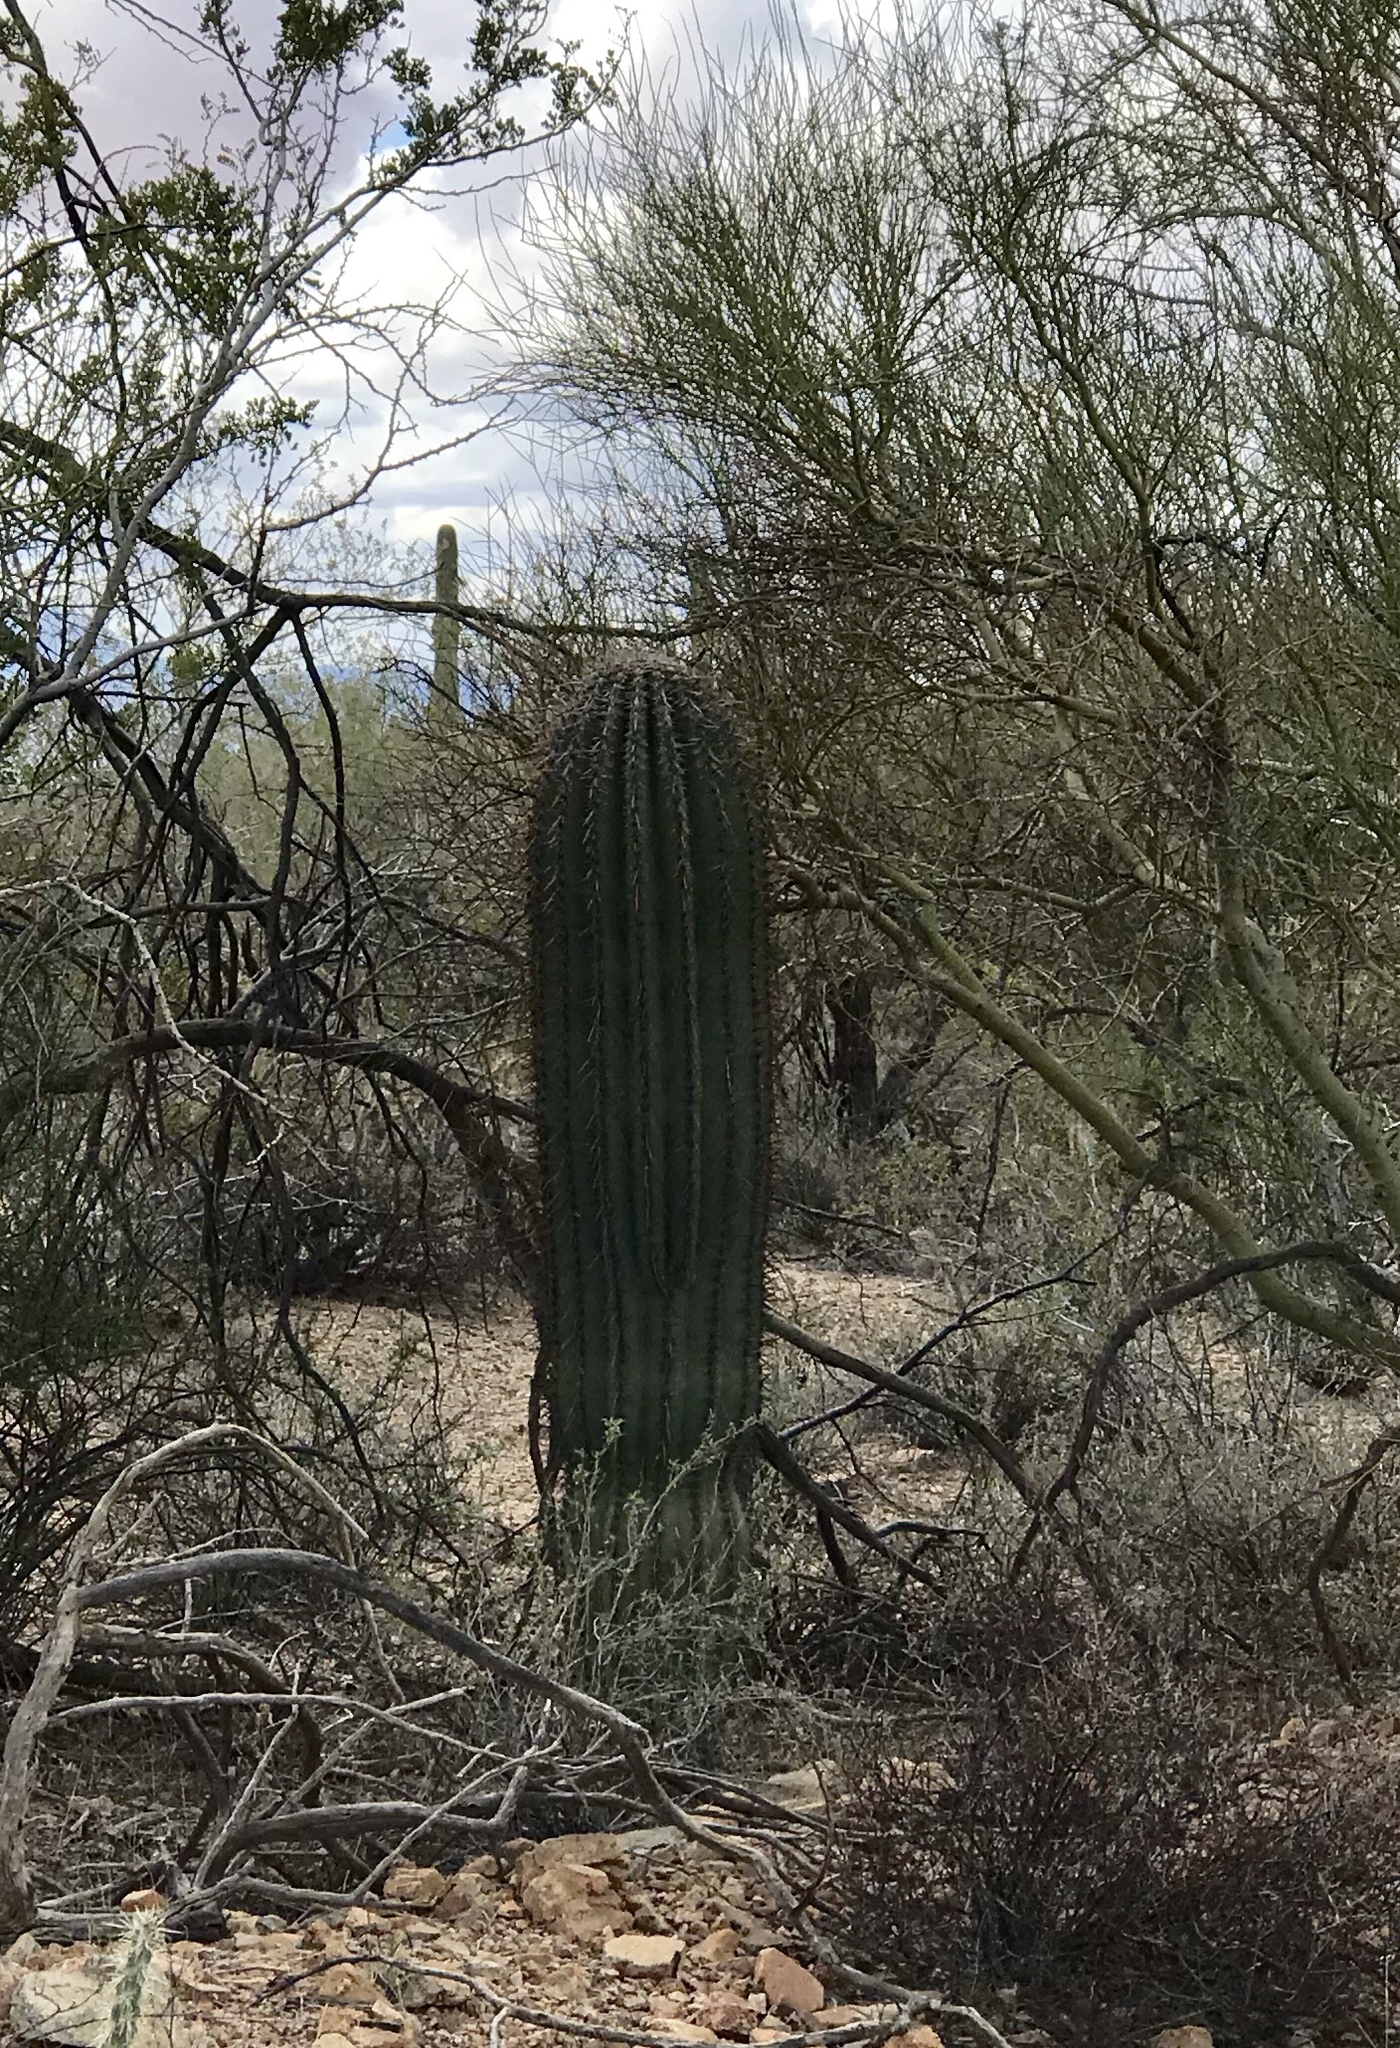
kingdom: Plantae
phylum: Tracheophyta
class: Magnoliopsida
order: Caryophyllales
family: Cactaceae
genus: Carnegiea
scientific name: Carnegiea gigantea
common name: Saguaro
